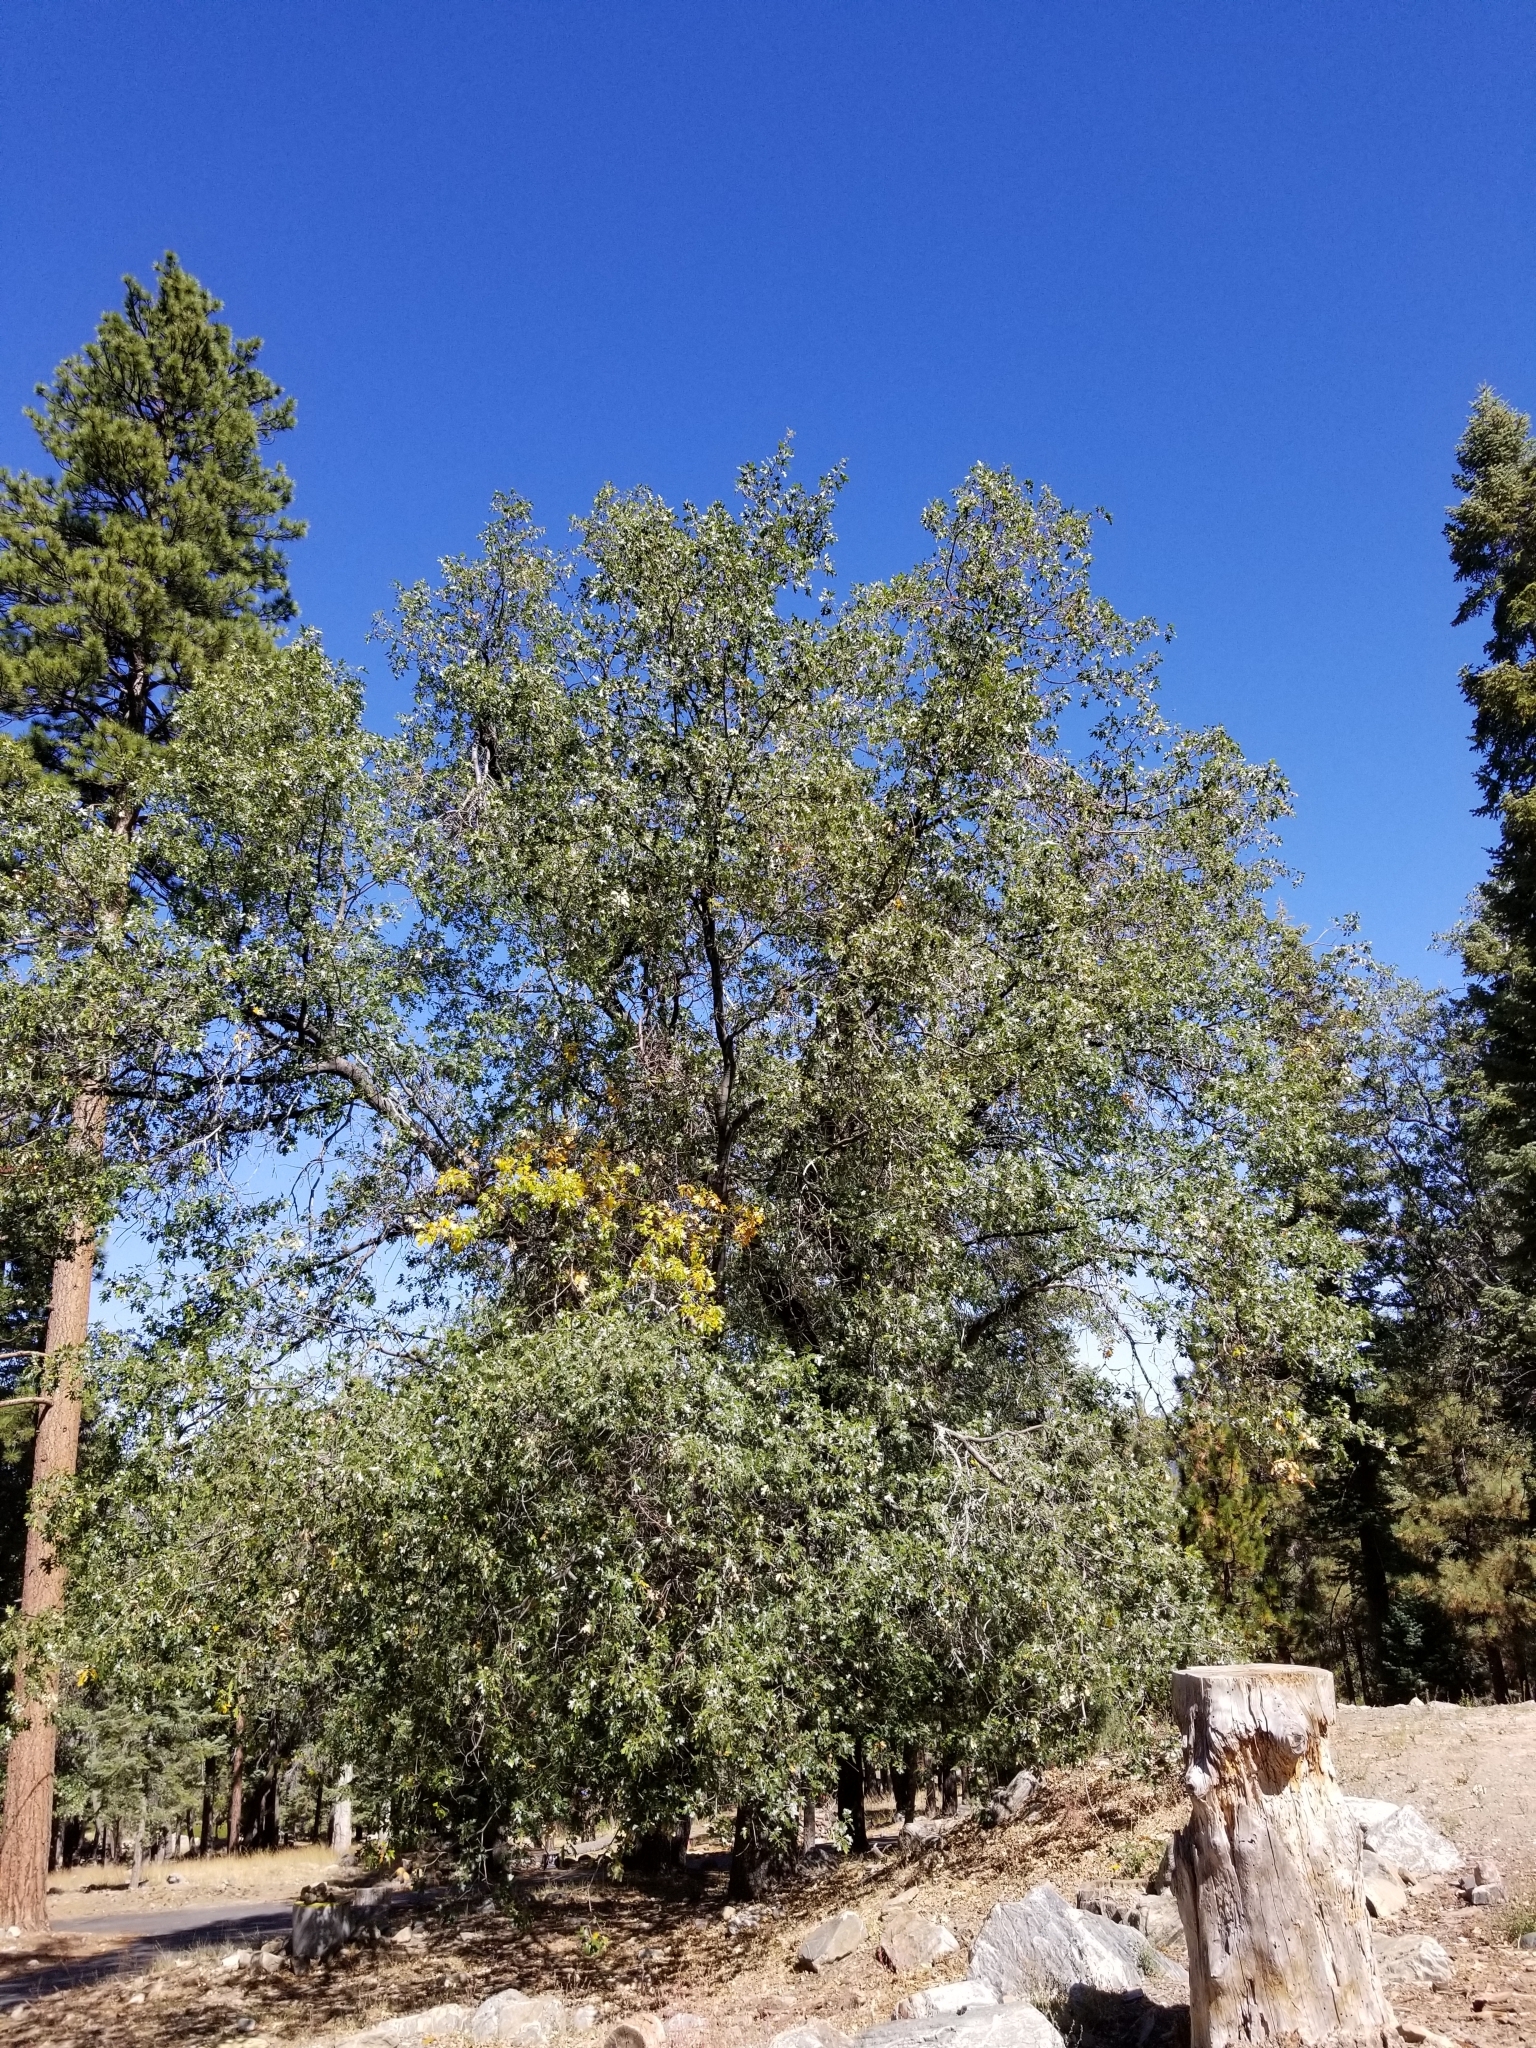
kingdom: Plantae
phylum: Tracheophyta
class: Magnoliopsida
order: Fagales
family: Fagaceae
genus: Quercus
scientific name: Quercus kelloggii
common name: California black oak
